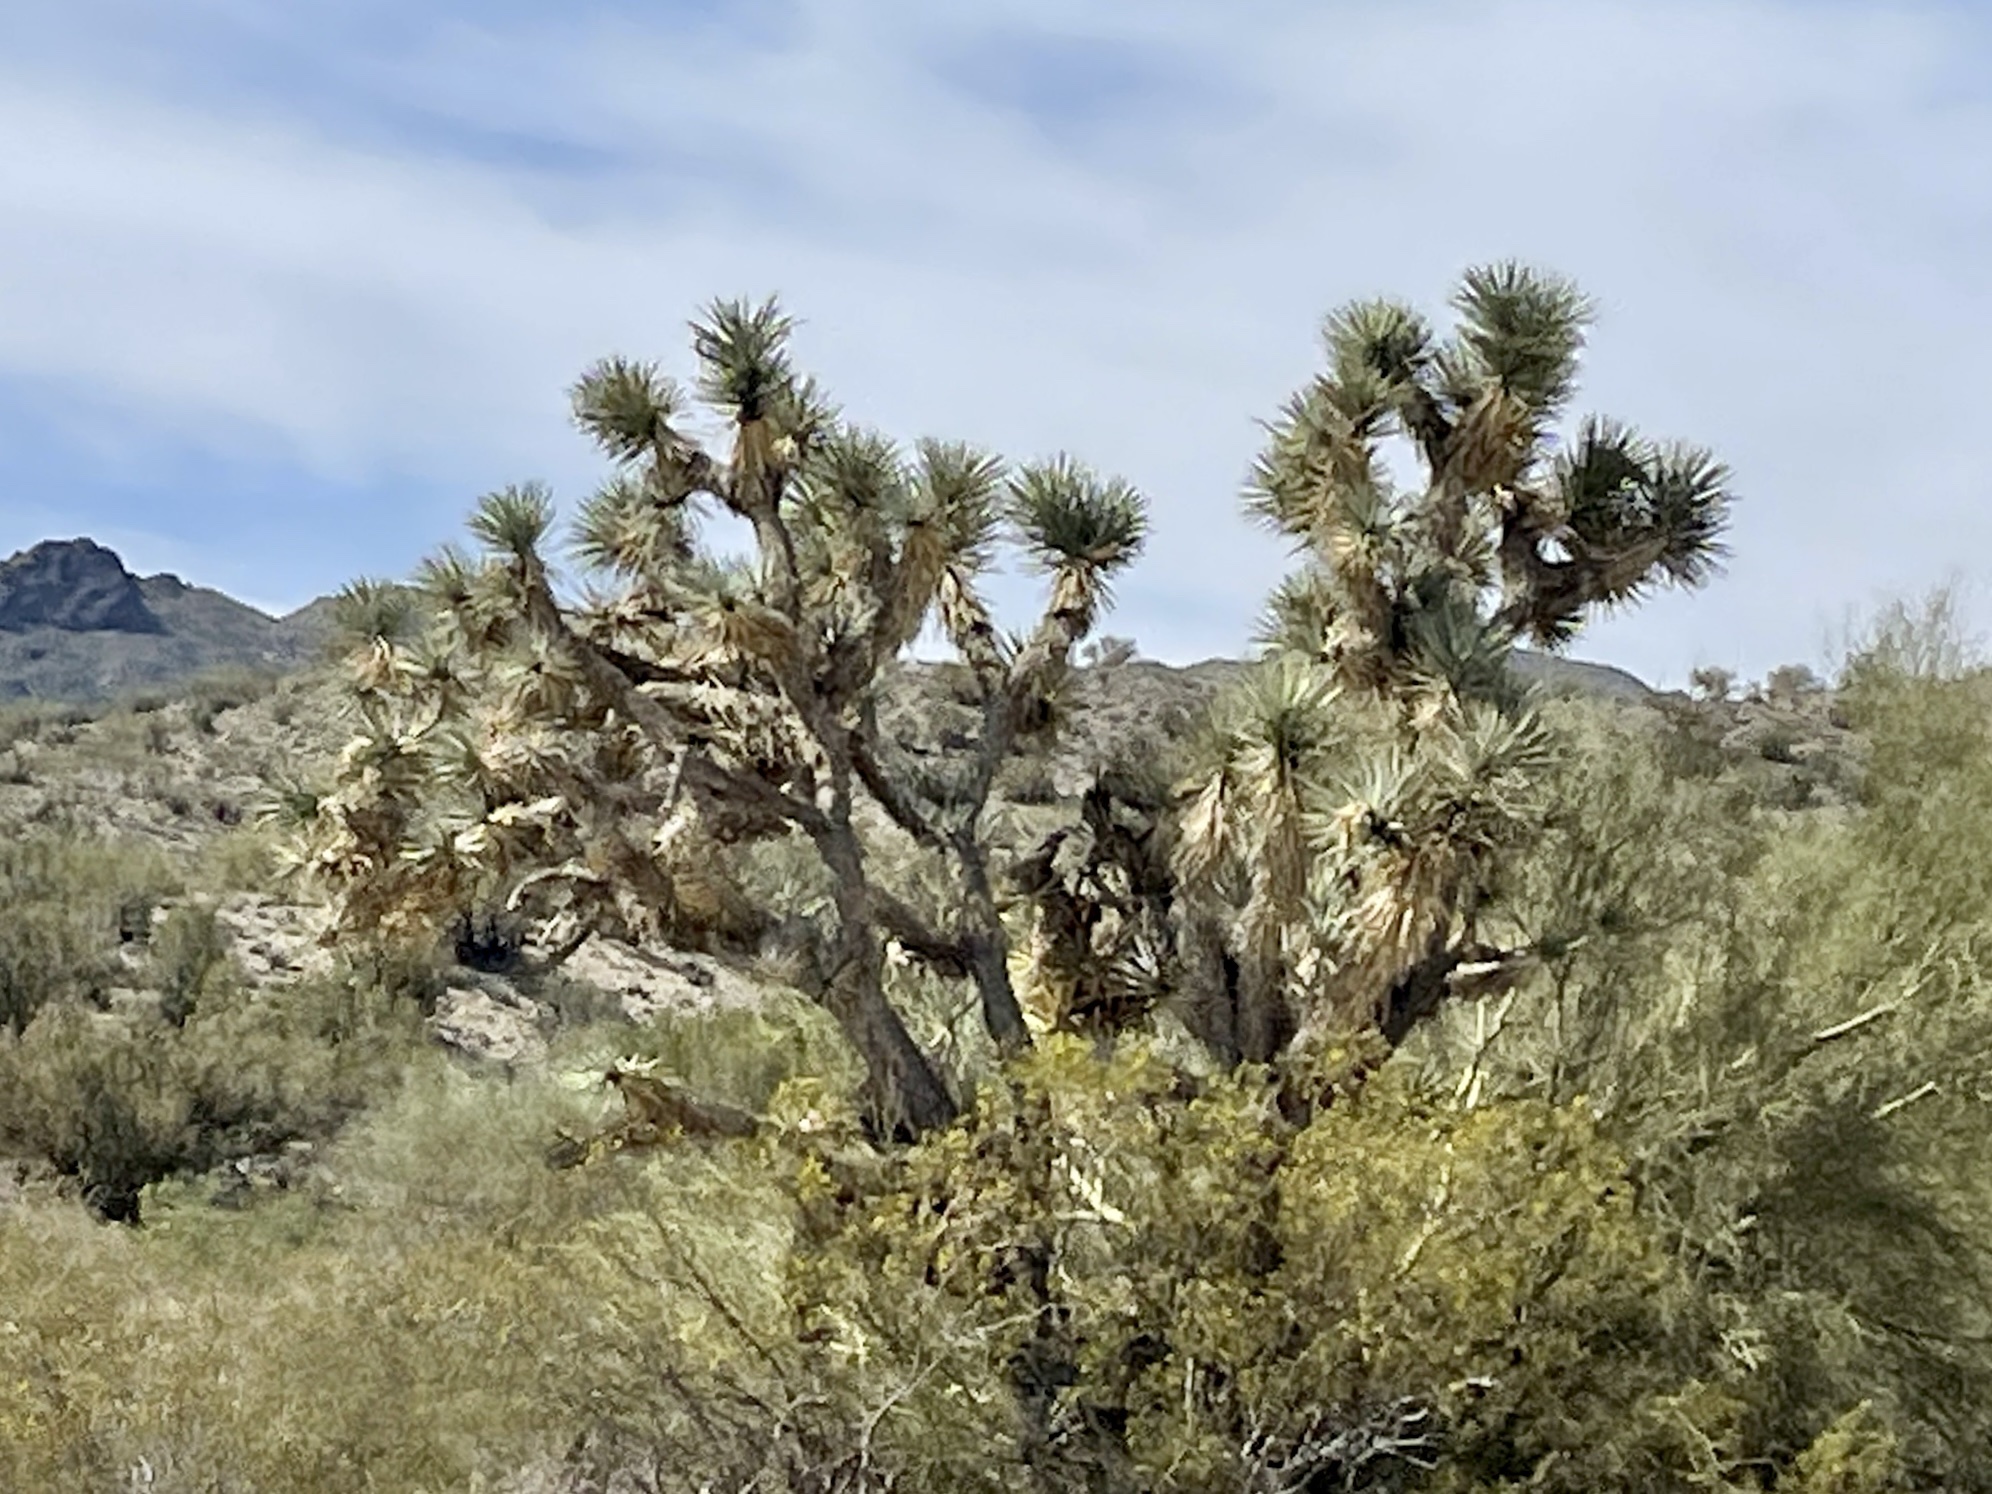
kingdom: Plantae
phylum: Tracheophyta
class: Liliopsida
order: Asparagales
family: Asparagaceae
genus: Yucca
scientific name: Yucca brevifolia
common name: Joshua tree
